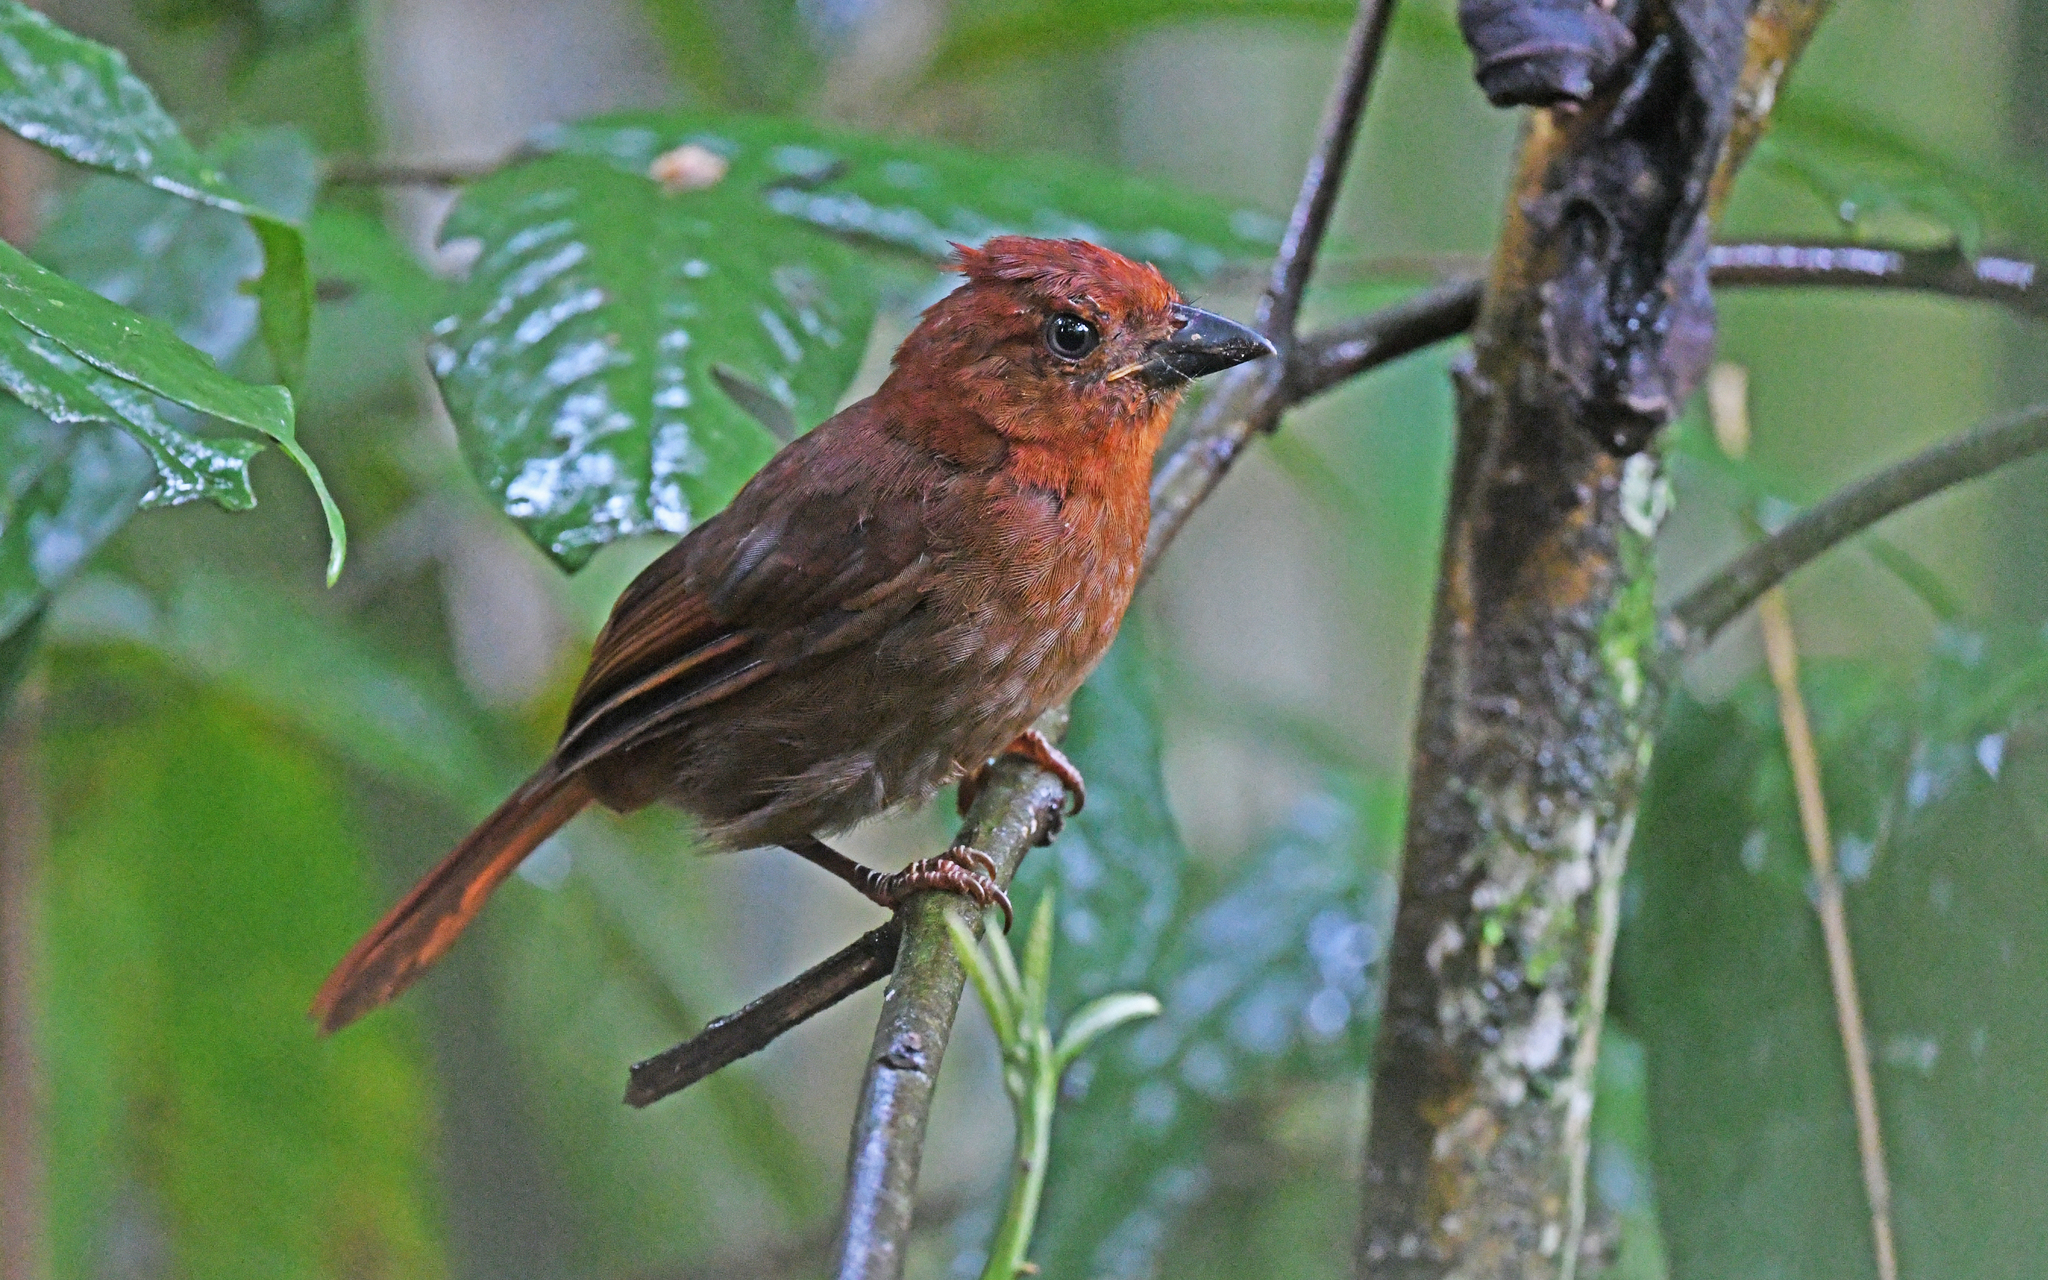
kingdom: Animalia
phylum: Chordata
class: Aves
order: Passeriformes
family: Cardinalidae
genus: Habia
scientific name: Habia cristata
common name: Crested ant tanager
